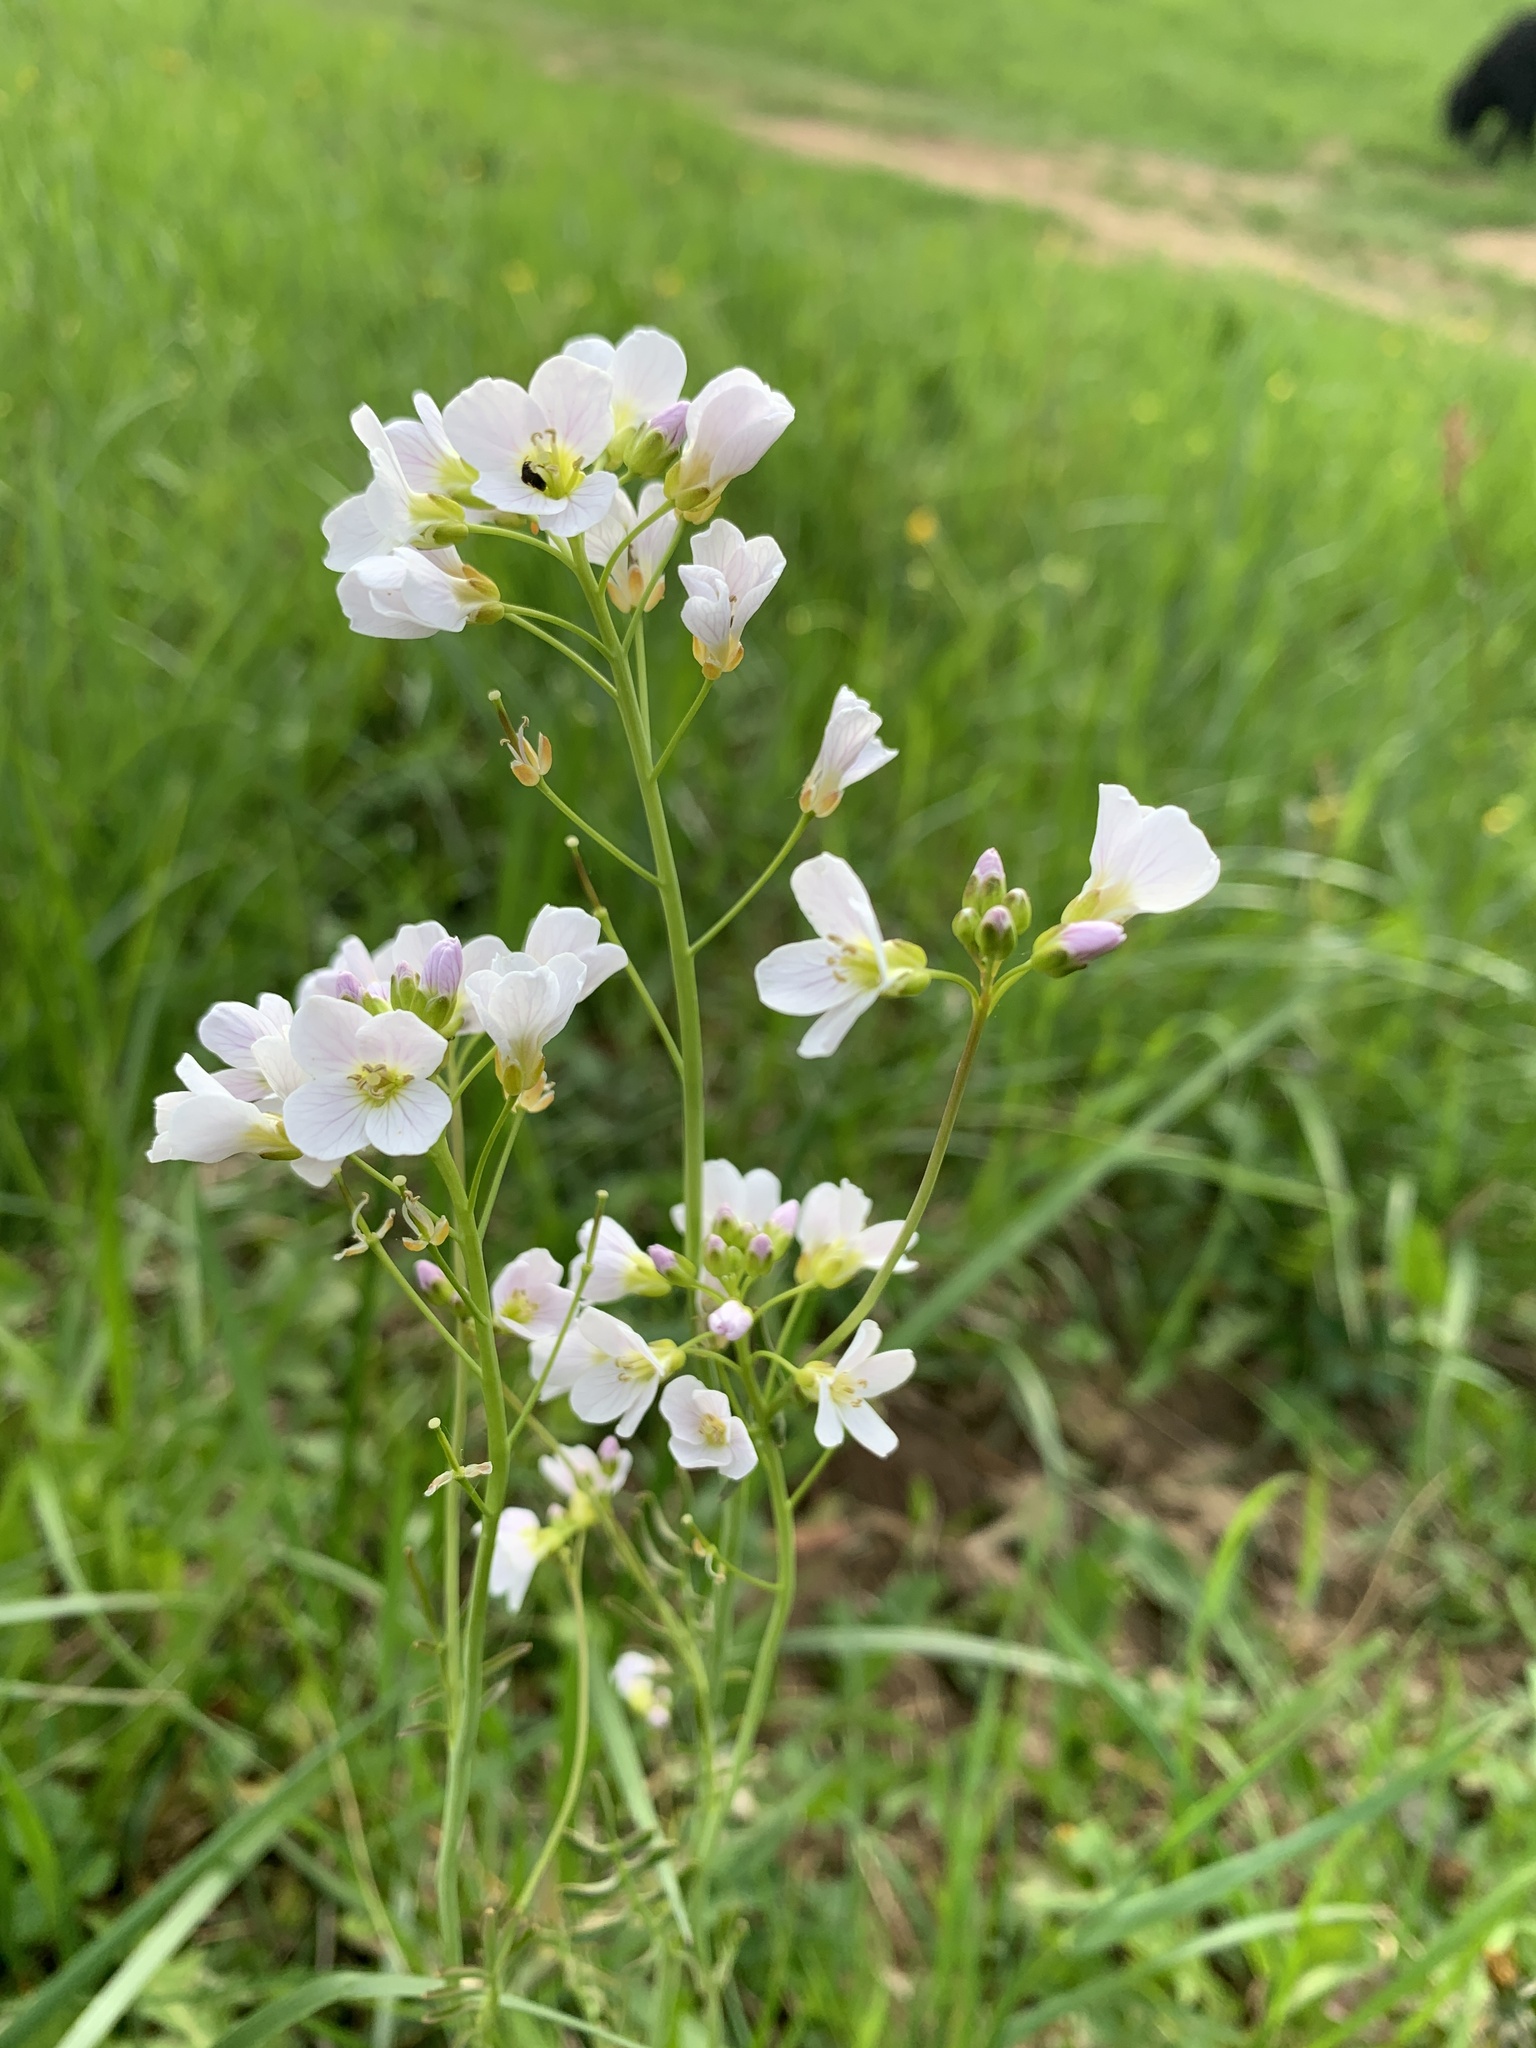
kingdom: Plantae
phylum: Tracheophyta
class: Magnoliopsida
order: Brassicales
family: Brassicaceae
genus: Cardamine
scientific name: Cardamine pratensis
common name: Cuckoo flower
